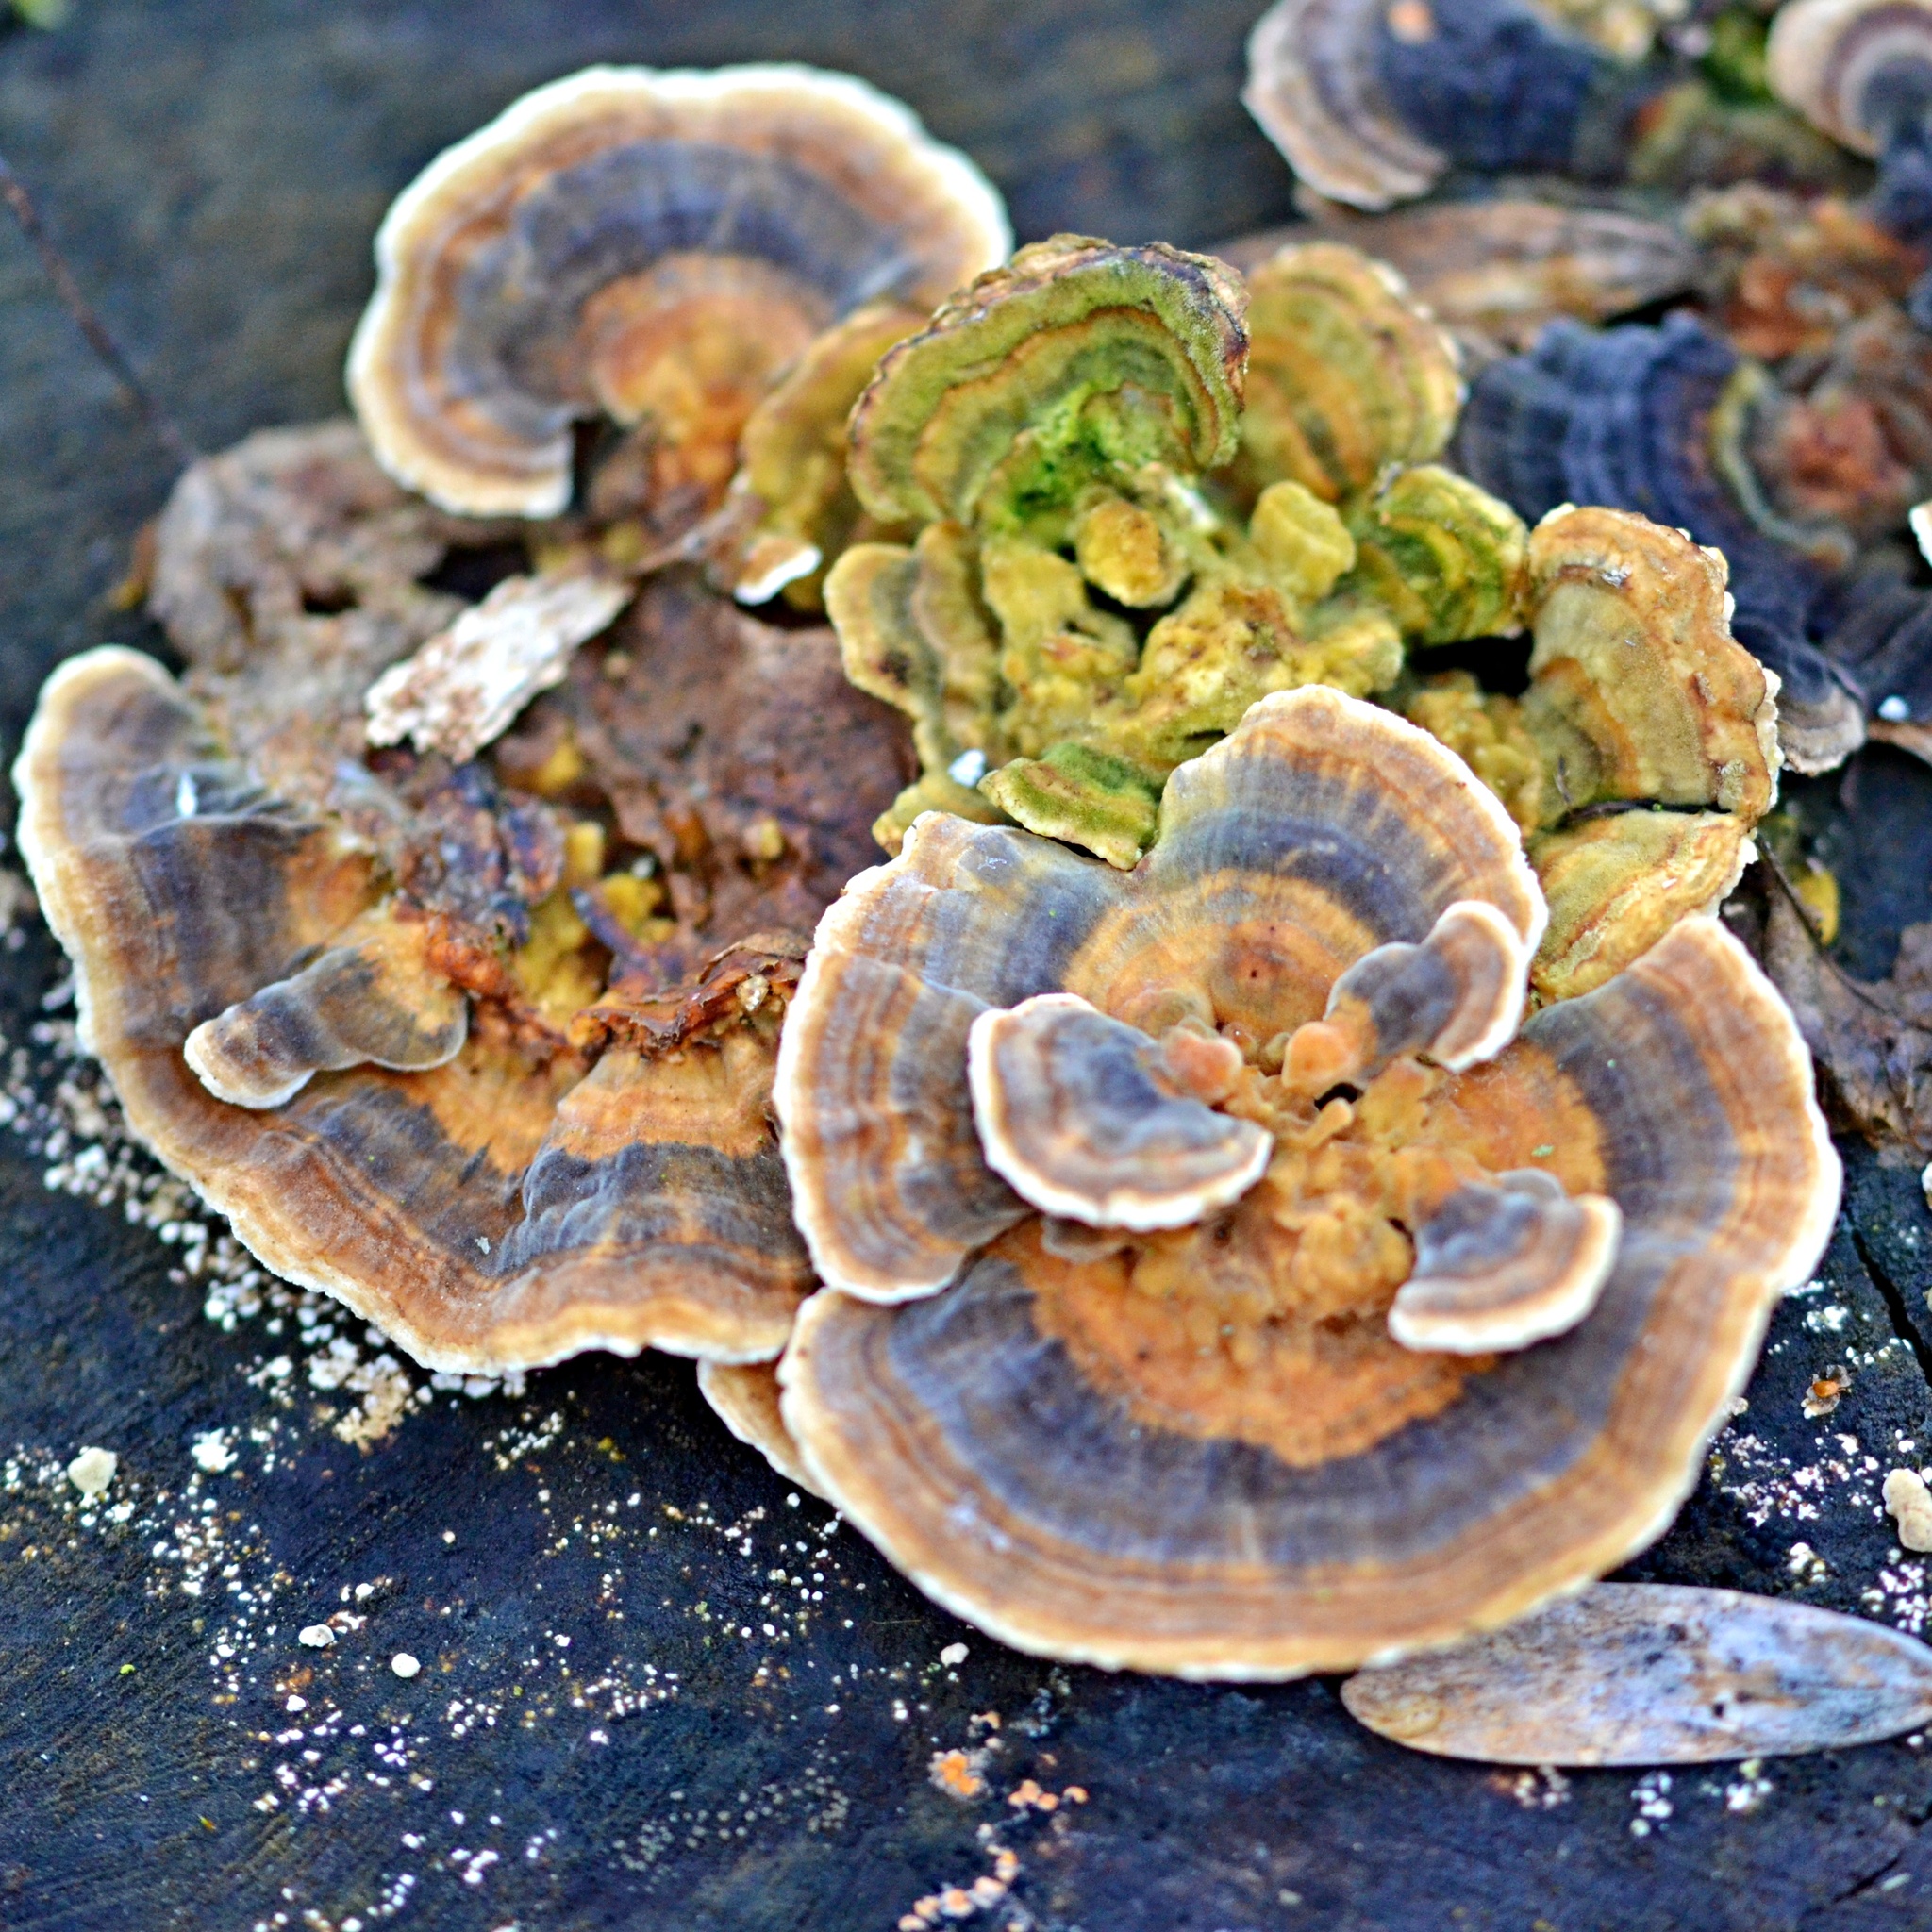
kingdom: Fungi
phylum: Basidiomycota
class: Agaricomycetes
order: Polyporales
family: Polyporaceae
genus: Trametes
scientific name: Trametes versicolor
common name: Turkeytail
